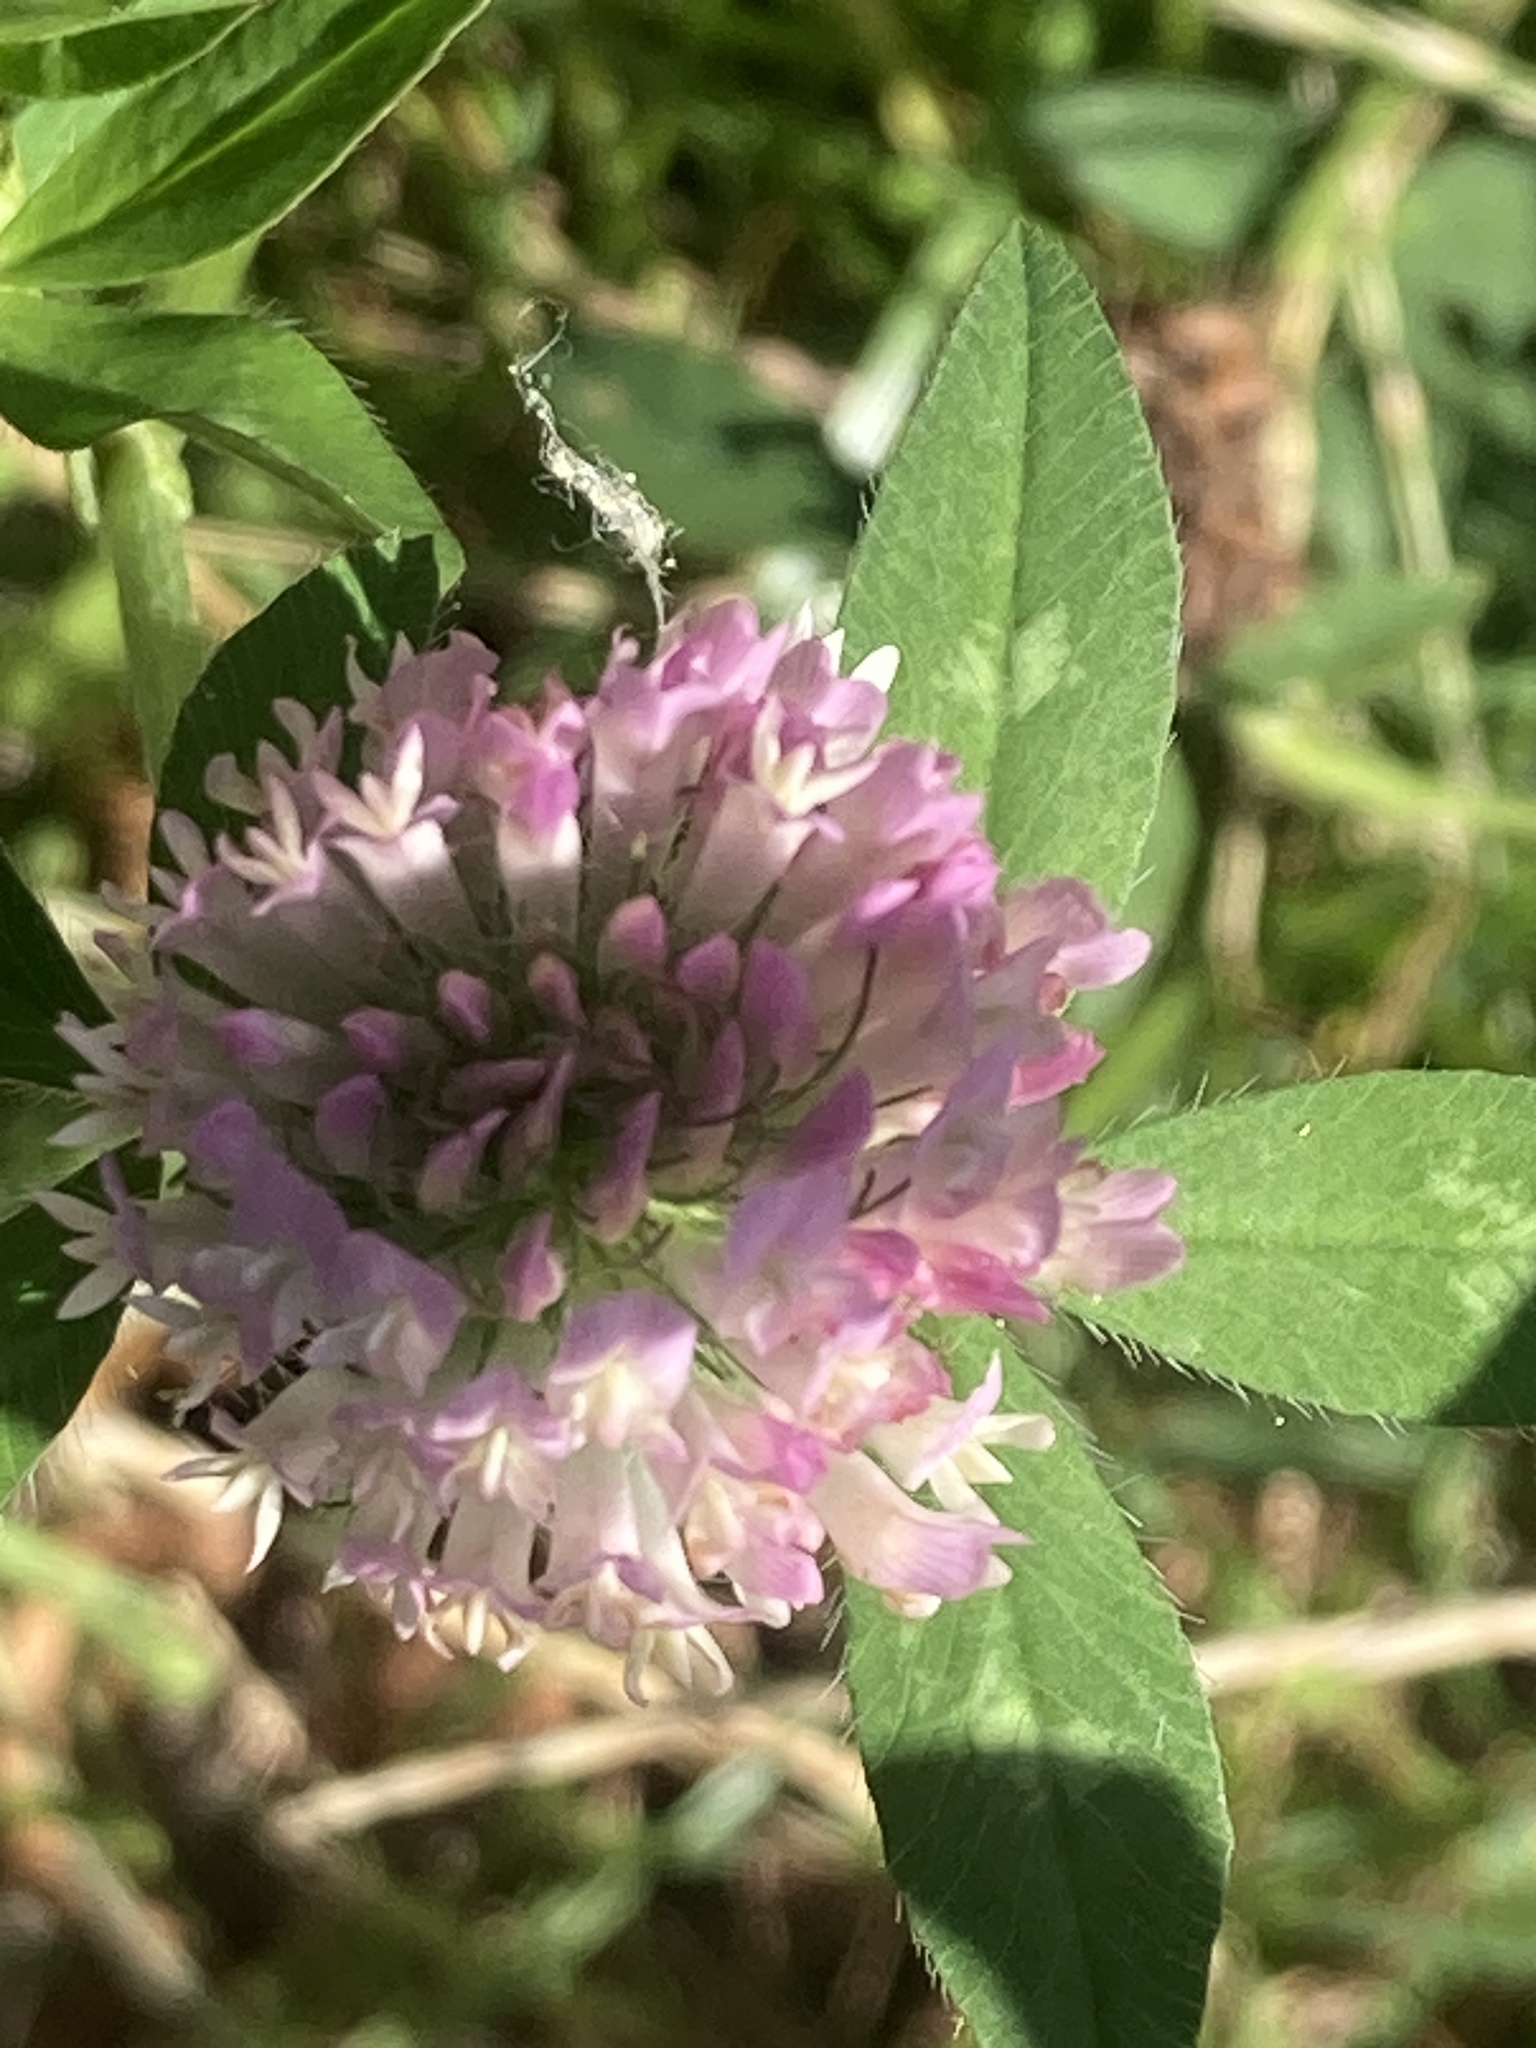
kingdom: Plantae
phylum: Tracheophyta
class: Magnoliopsida
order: Fabales
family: Fabaceae
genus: Trifolium
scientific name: Trifolium pratense
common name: Red clover
